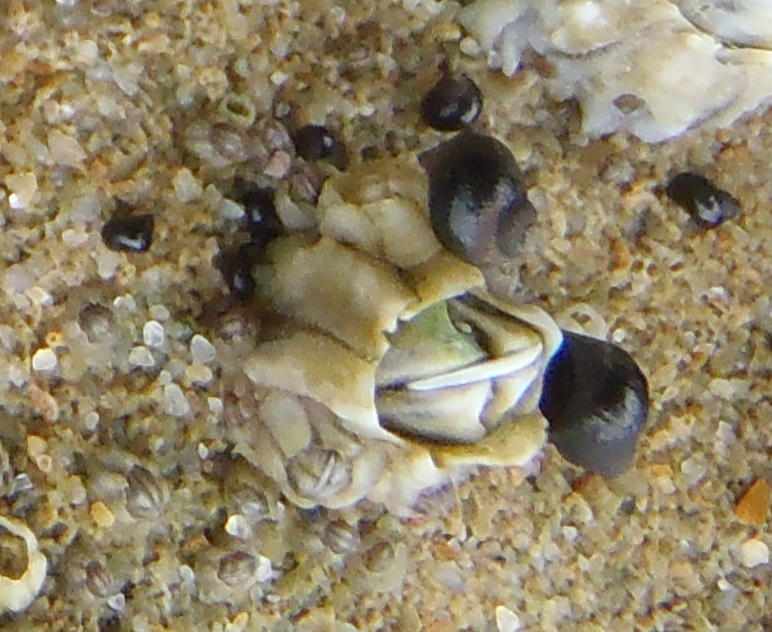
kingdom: Animalia
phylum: Mollusca
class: Gastropoda
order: Trochida
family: Trochidae
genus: Oxystele
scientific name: Oxystele sinensis
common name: Pink-lipped topshell
